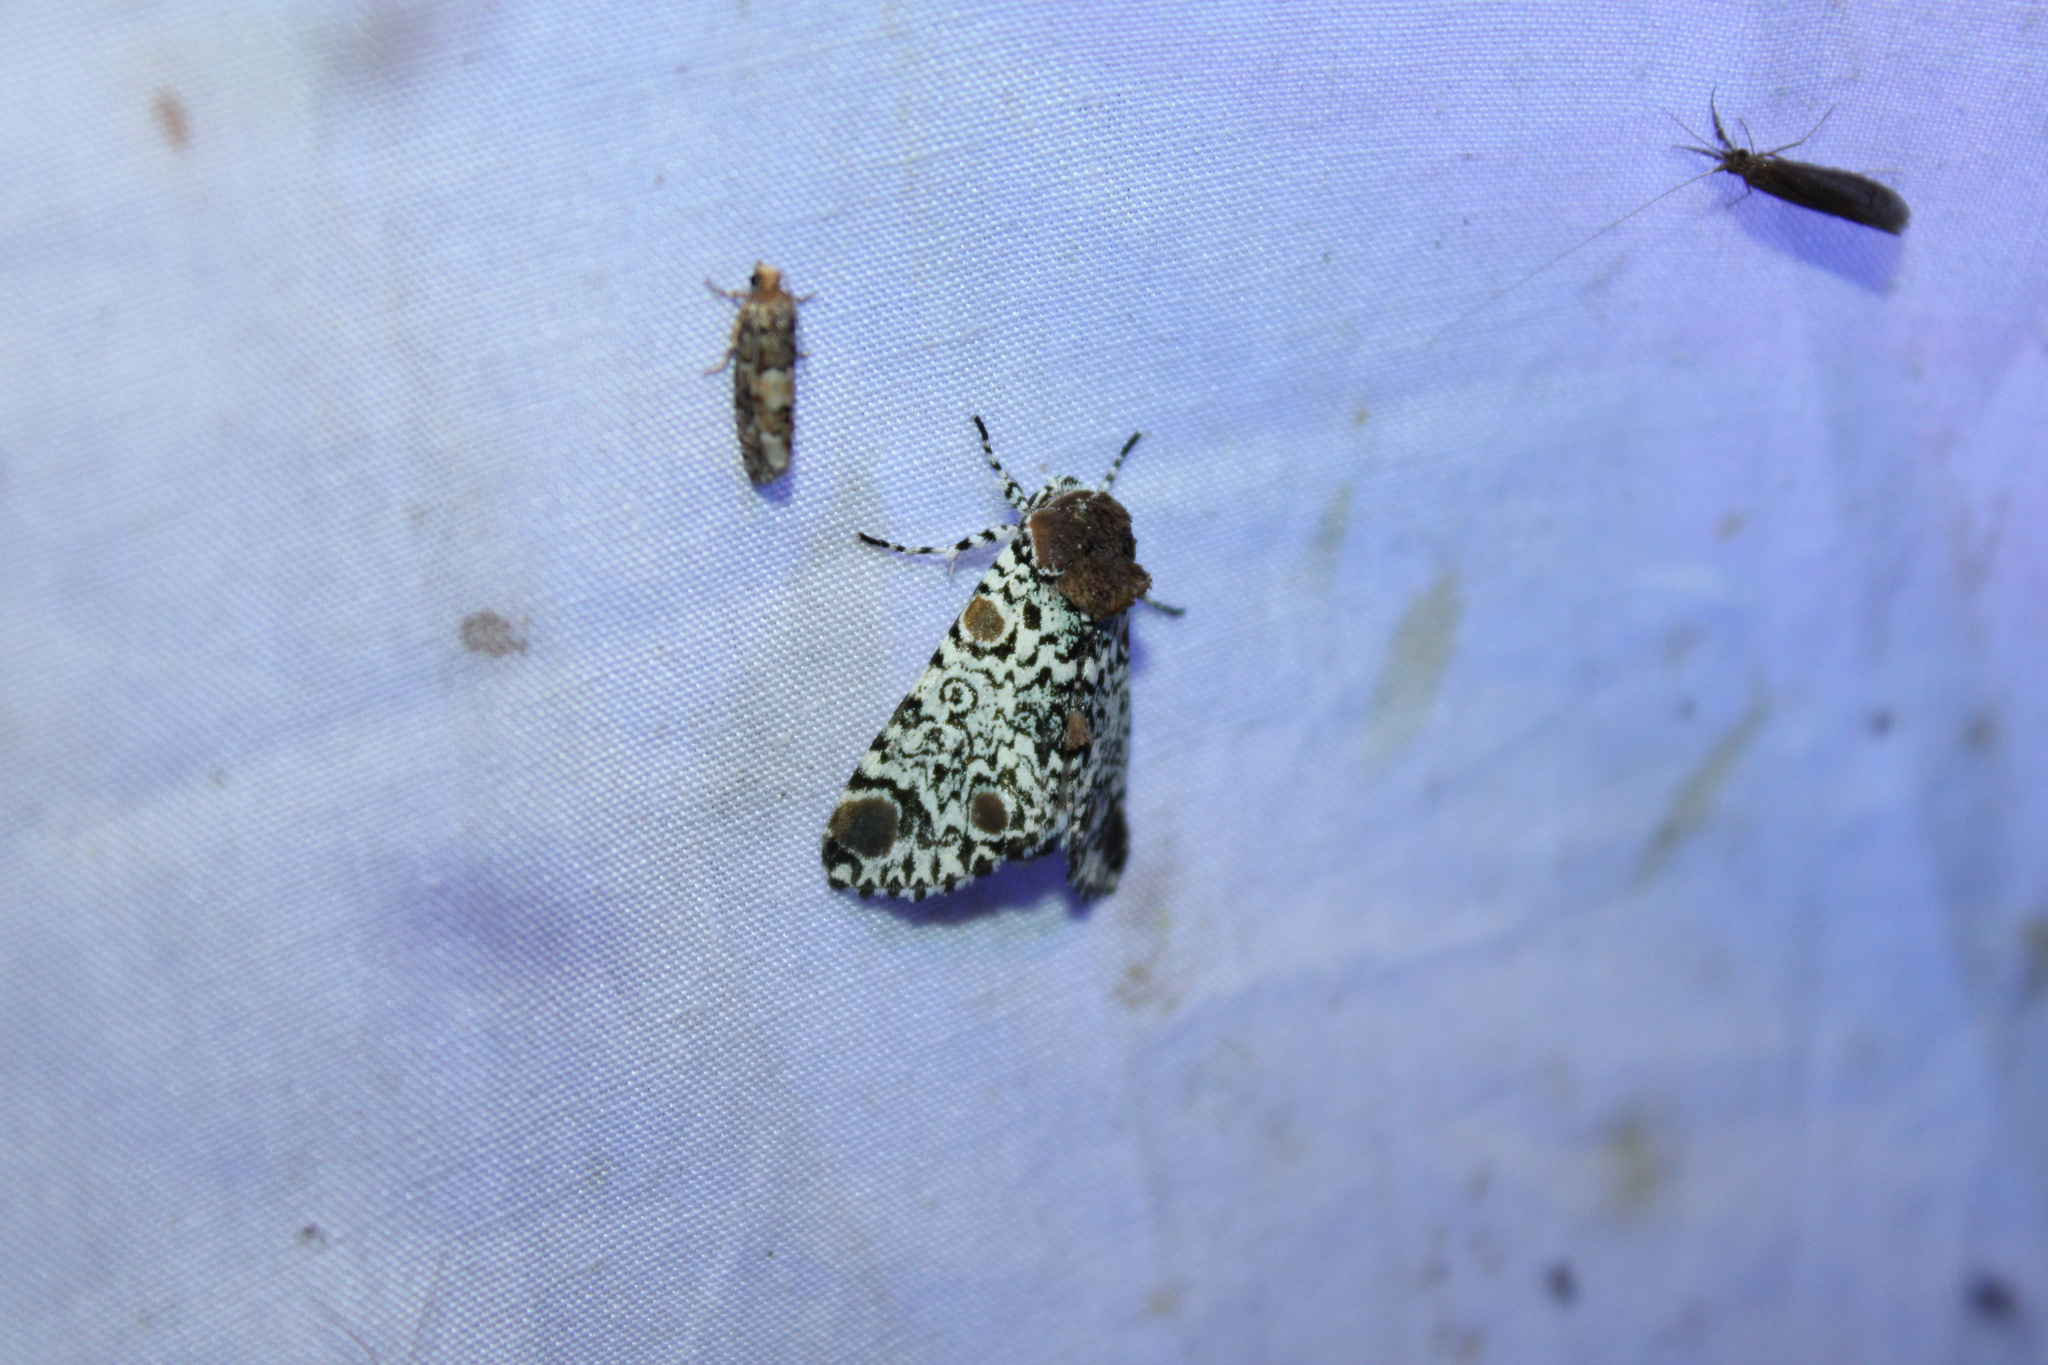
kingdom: Animalia
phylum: Arthropoda
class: Insecta
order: Lepidoptera
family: Noctuidae
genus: Harrisimemna
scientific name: Harrisimemna trisignata
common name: Harris threespot
